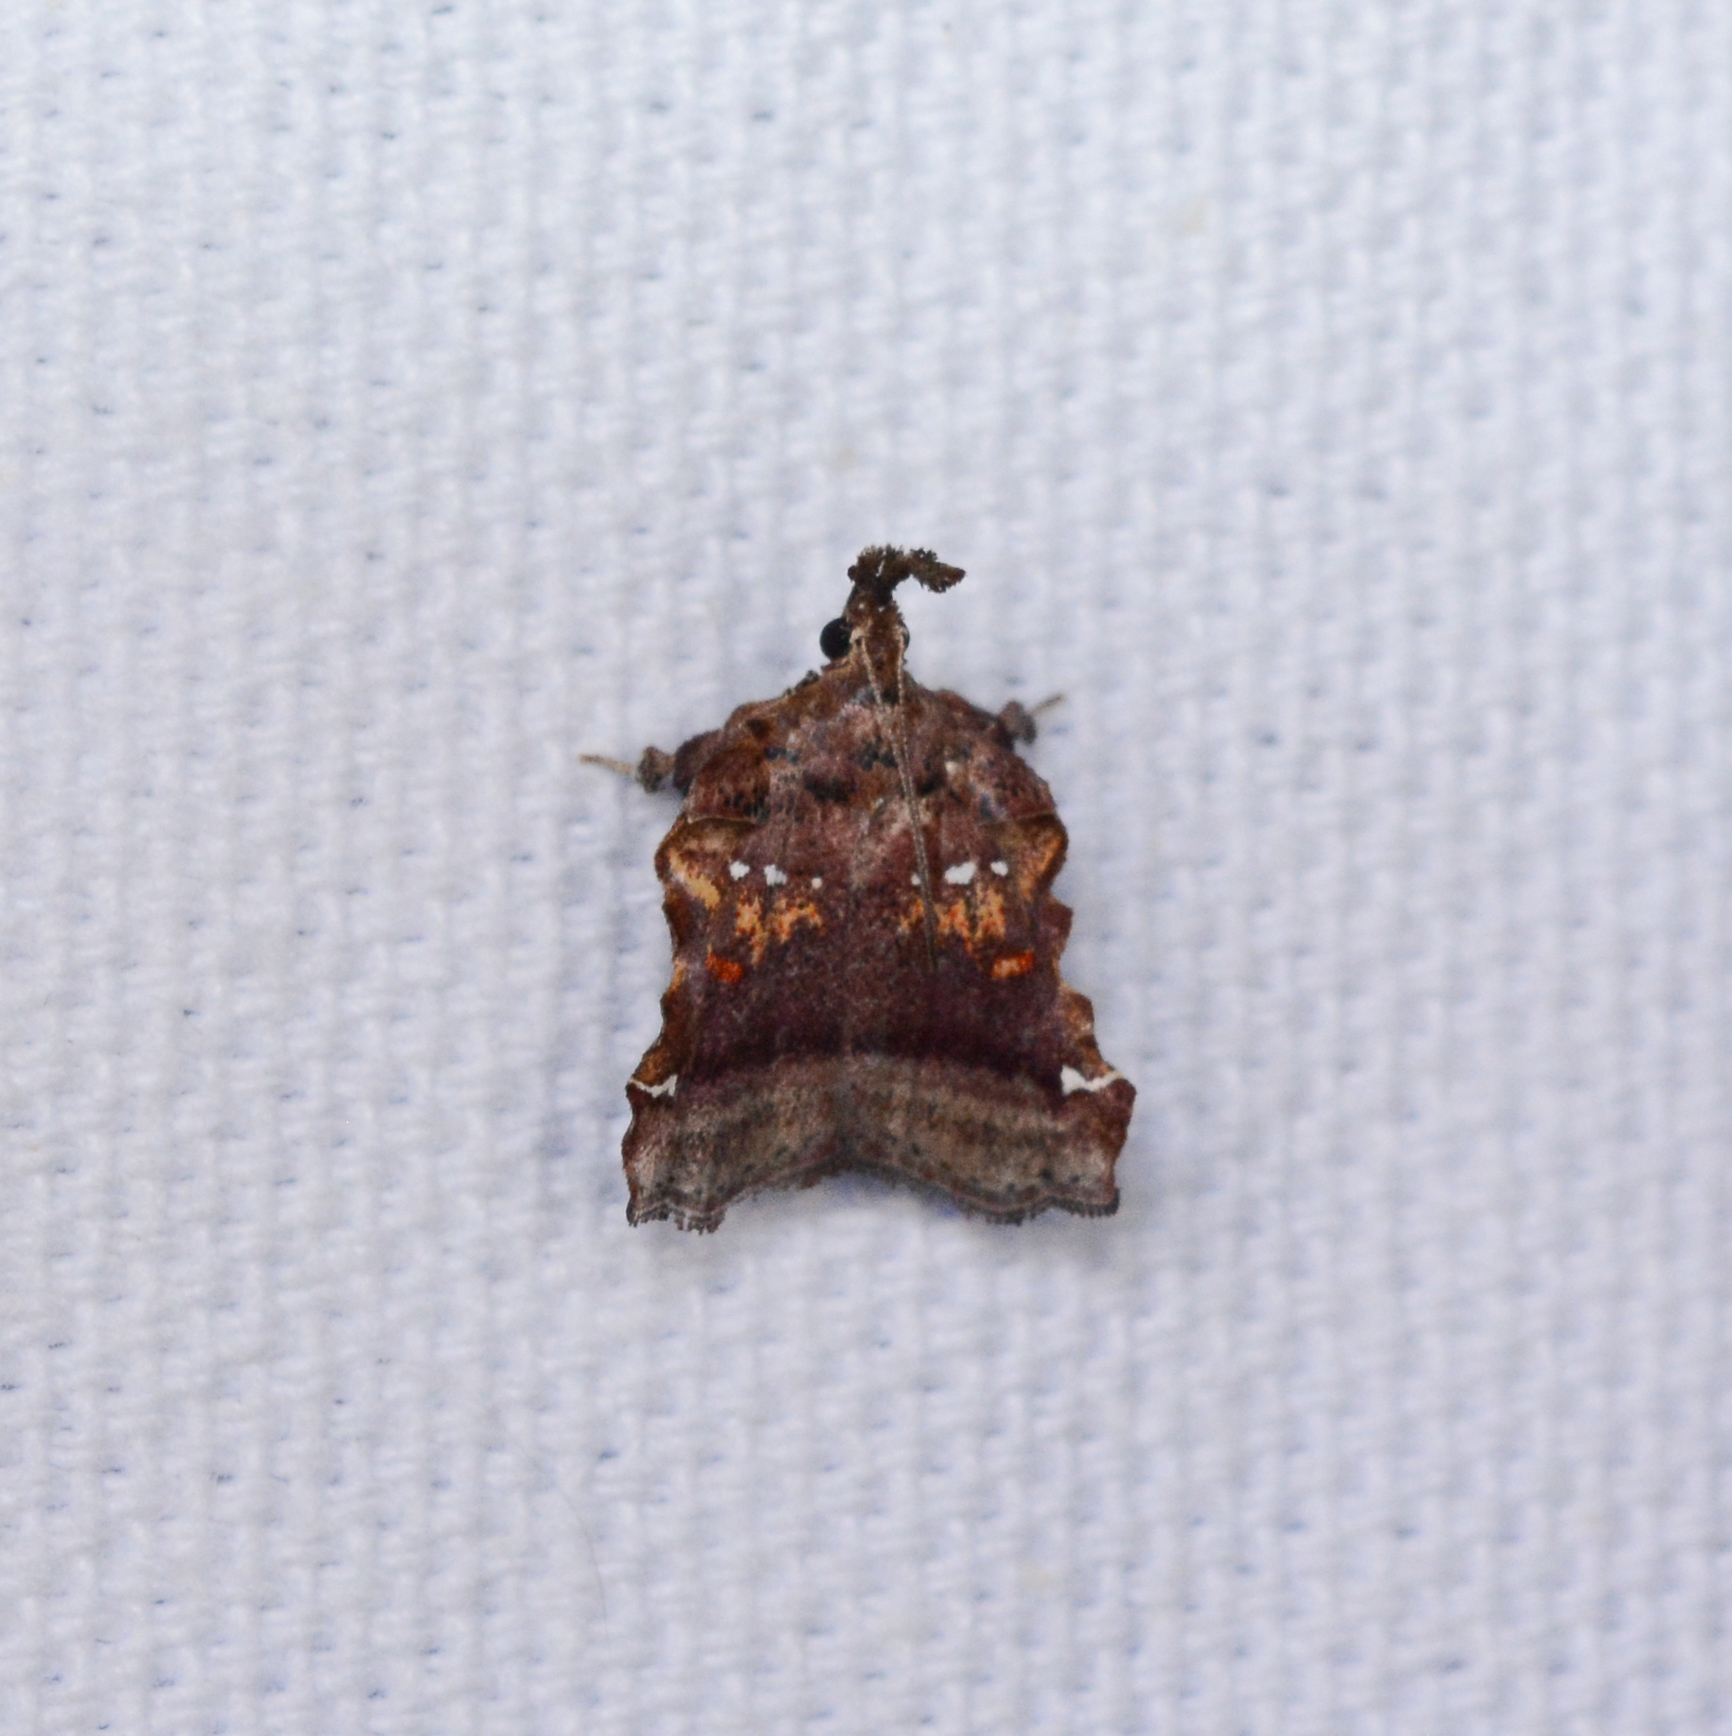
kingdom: Animalia
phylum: Arthropoda
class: Insecta
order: Lepidoptera
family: Pyralidae
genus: Clydonopteron
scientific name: Clydonopteron sacculana
